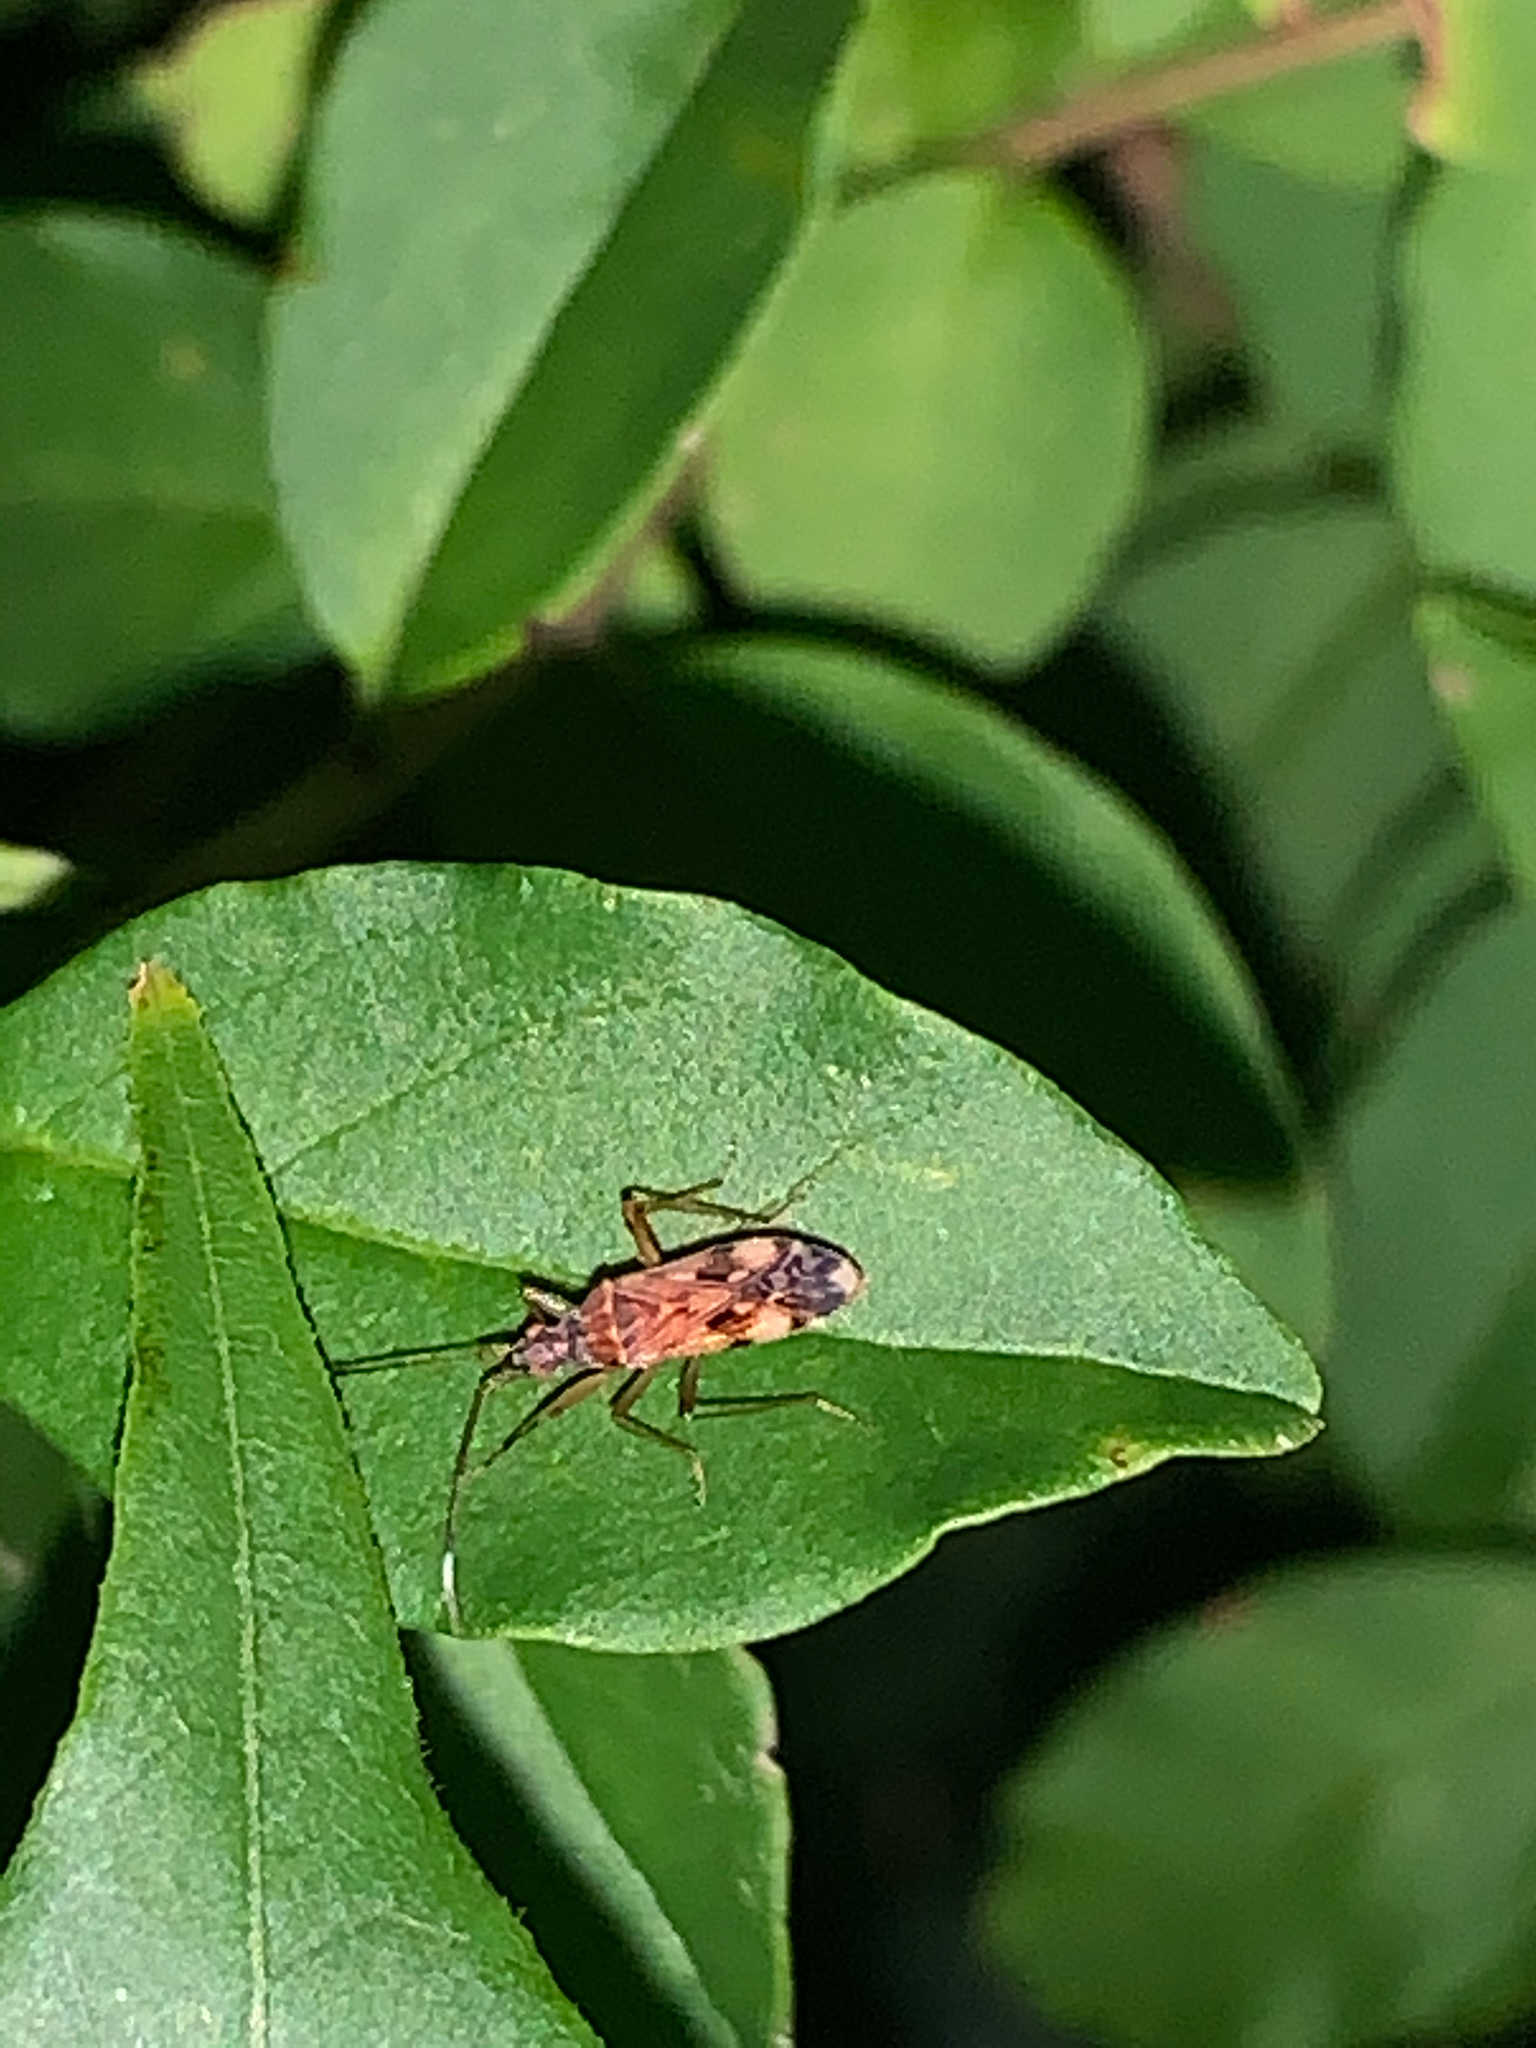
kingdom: Animalia
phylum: Arthropoda
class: Insecta
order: Hemiptera
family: Rhyparochromidae
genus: Ozophora
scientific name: Ozophora picturata
